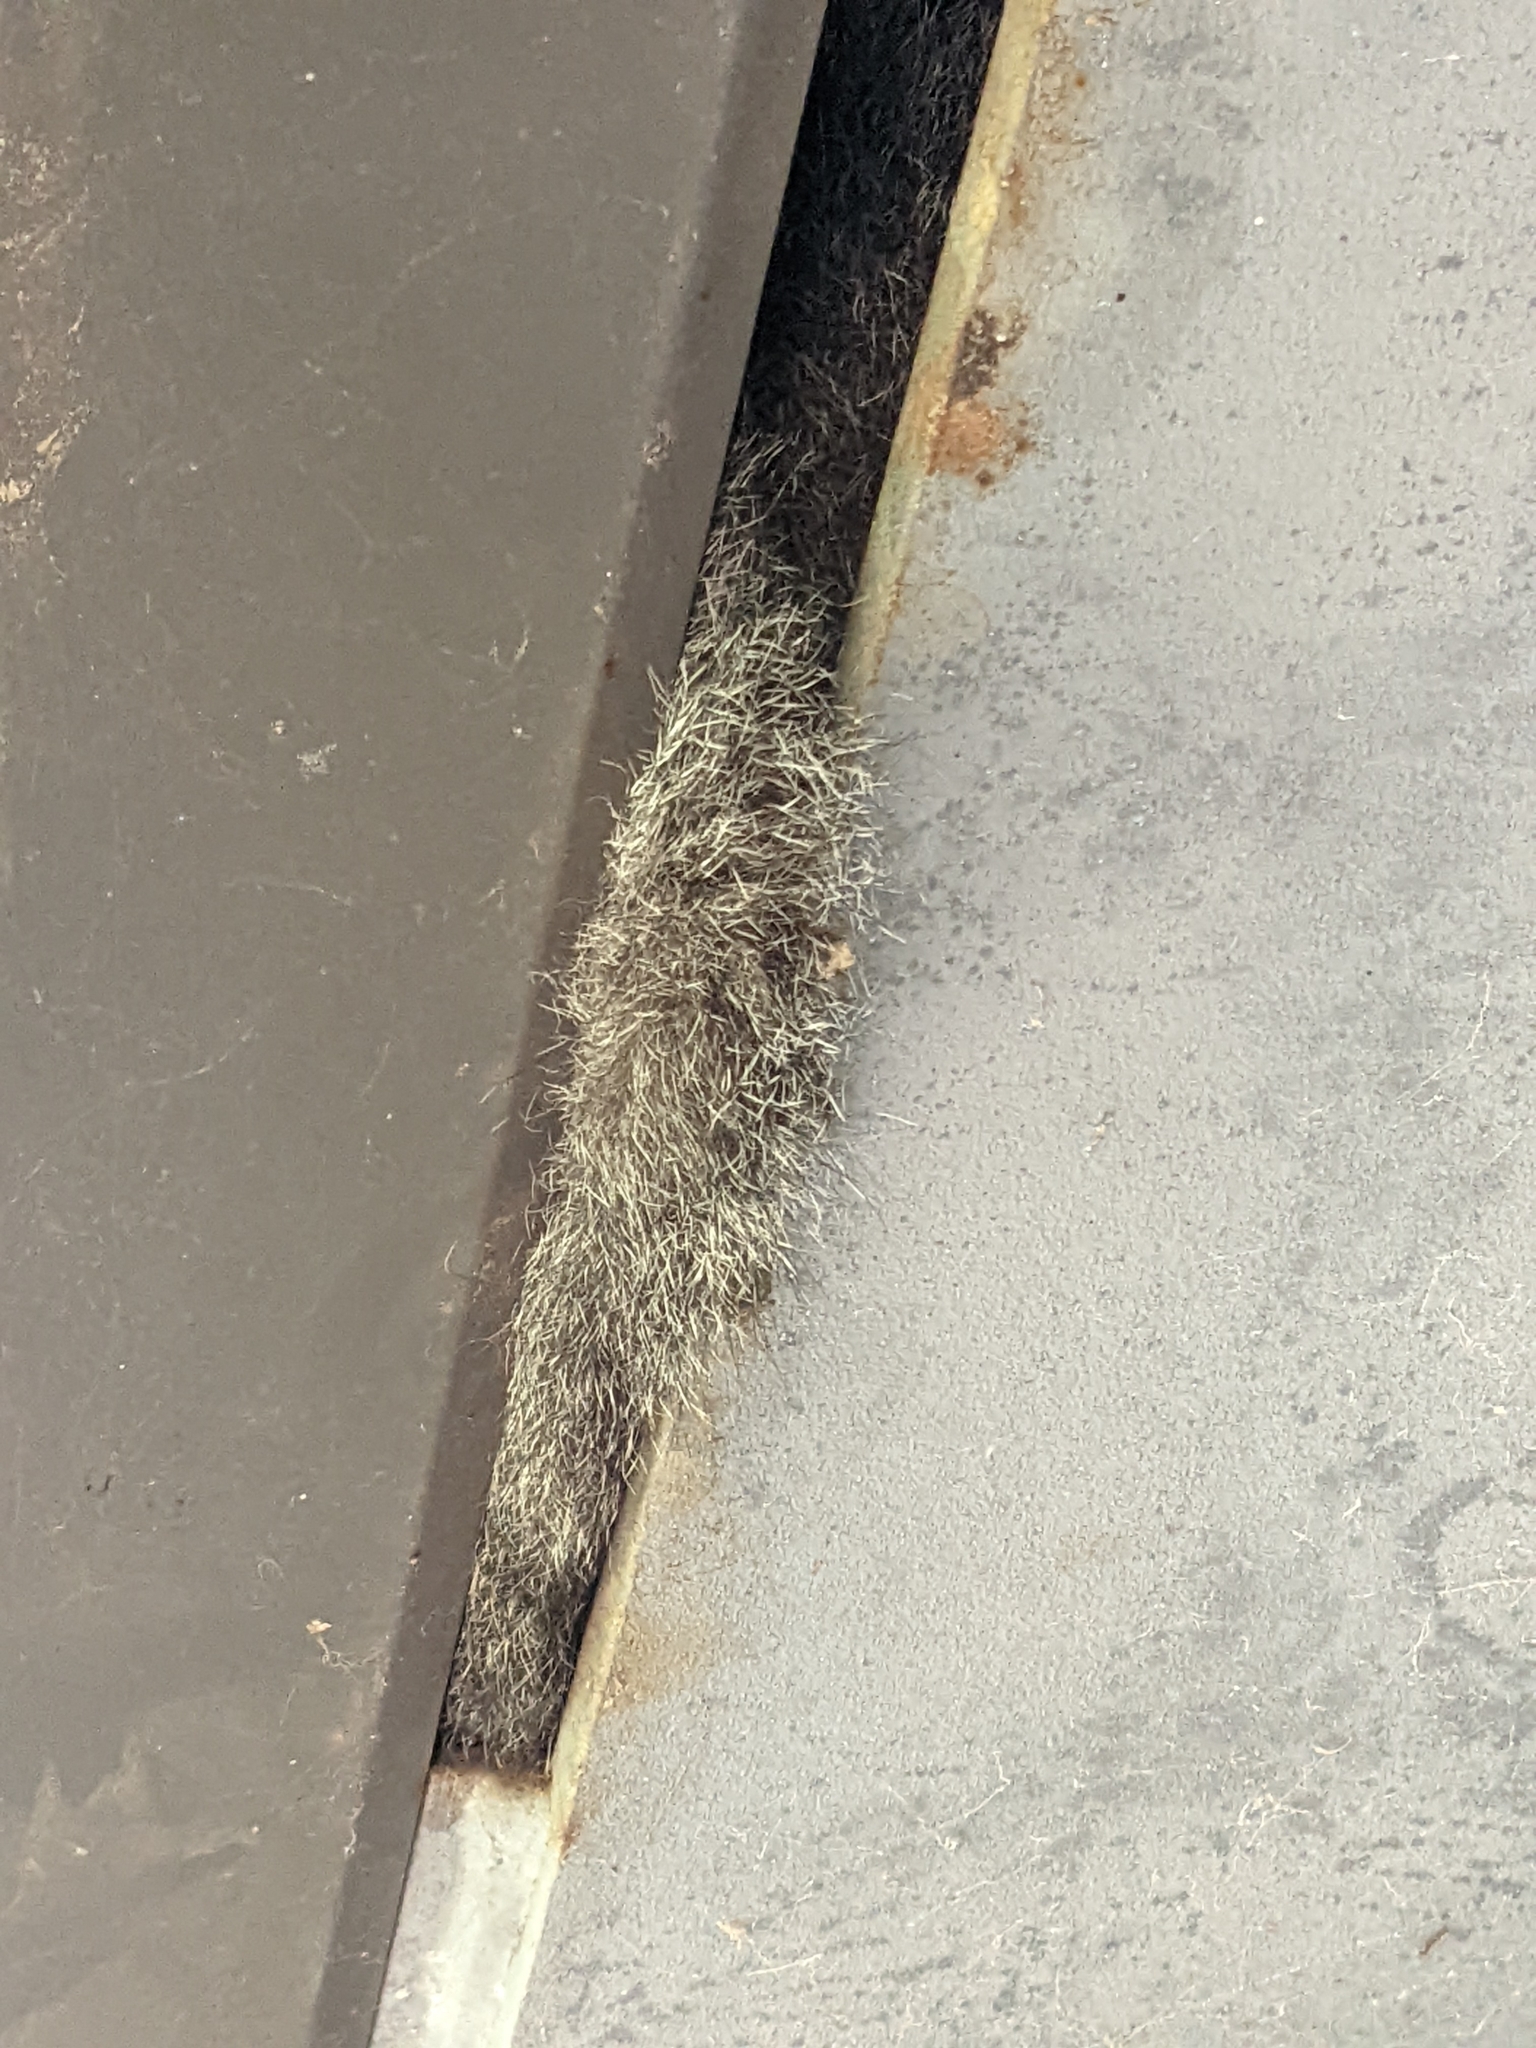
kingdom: Animalia
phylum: Chordata
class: Mammalia
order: Diprotodontia
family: Phalangeridae
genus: Trichosurus
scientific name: Trichosurus vulpecula
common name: Common brushtail
